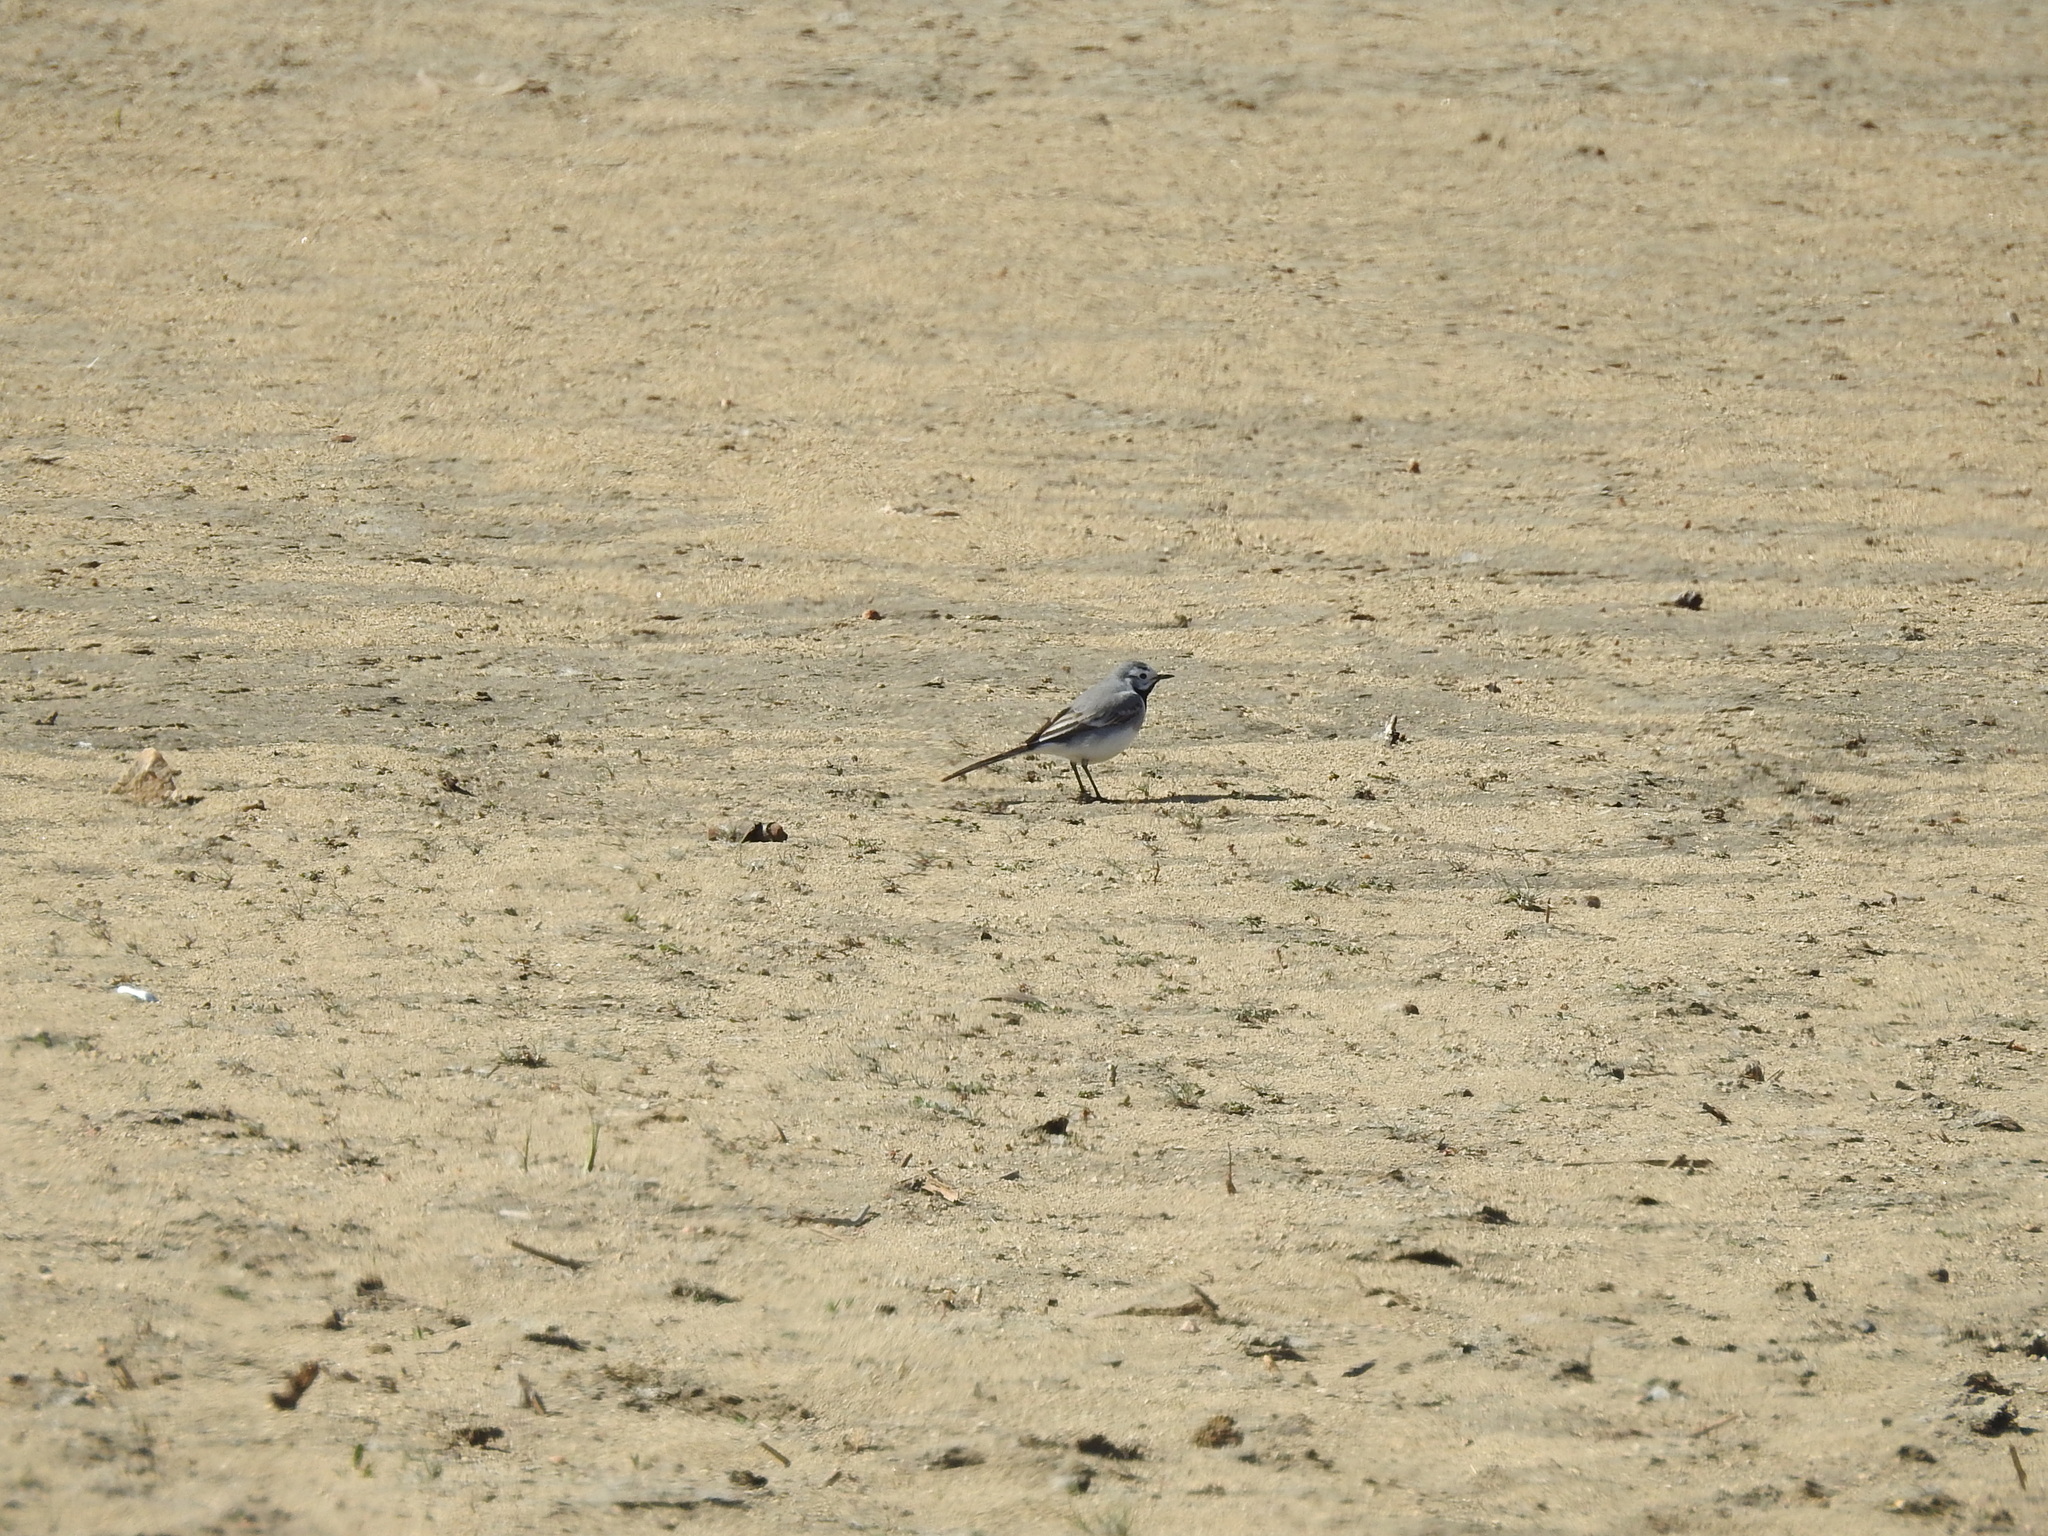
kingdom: Animalia
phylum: Chordata
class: Aves
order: Passeriformes
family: Motacillidae
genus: Motacilla
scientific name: Motacilla alba
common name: White wagtail
